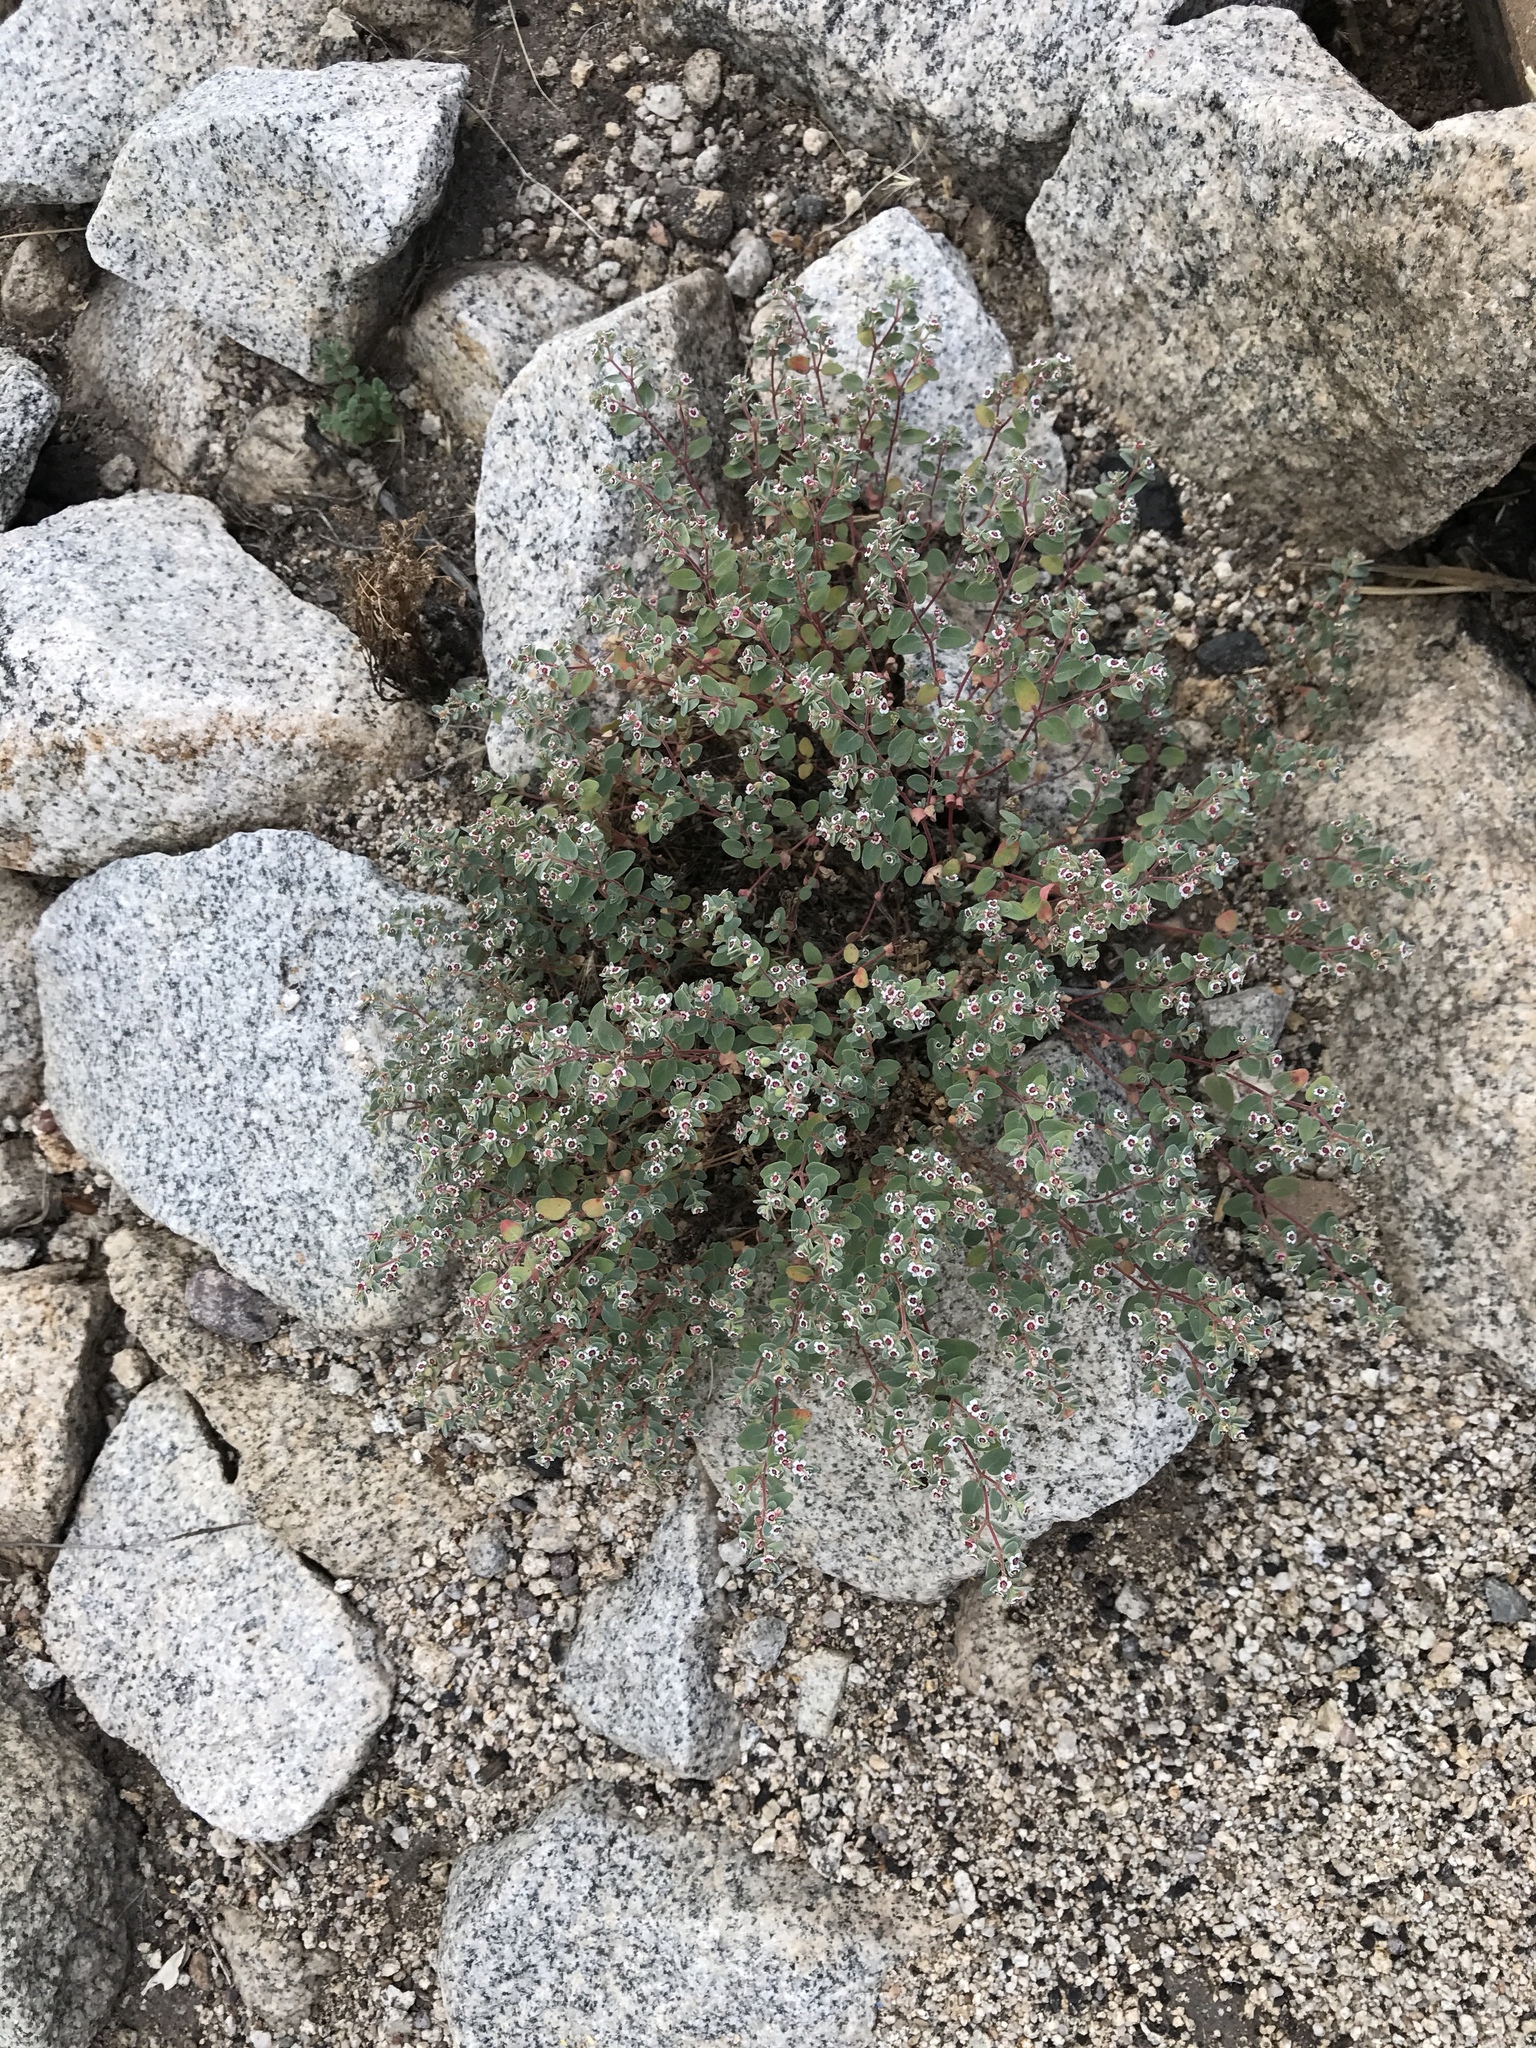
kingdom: Plantae
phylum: Tracheophyta
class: Magnoliopsida
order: Malpighiales
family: Euphorbiaceae
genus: Euphorbia
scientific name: Euphorbia melanadenia
